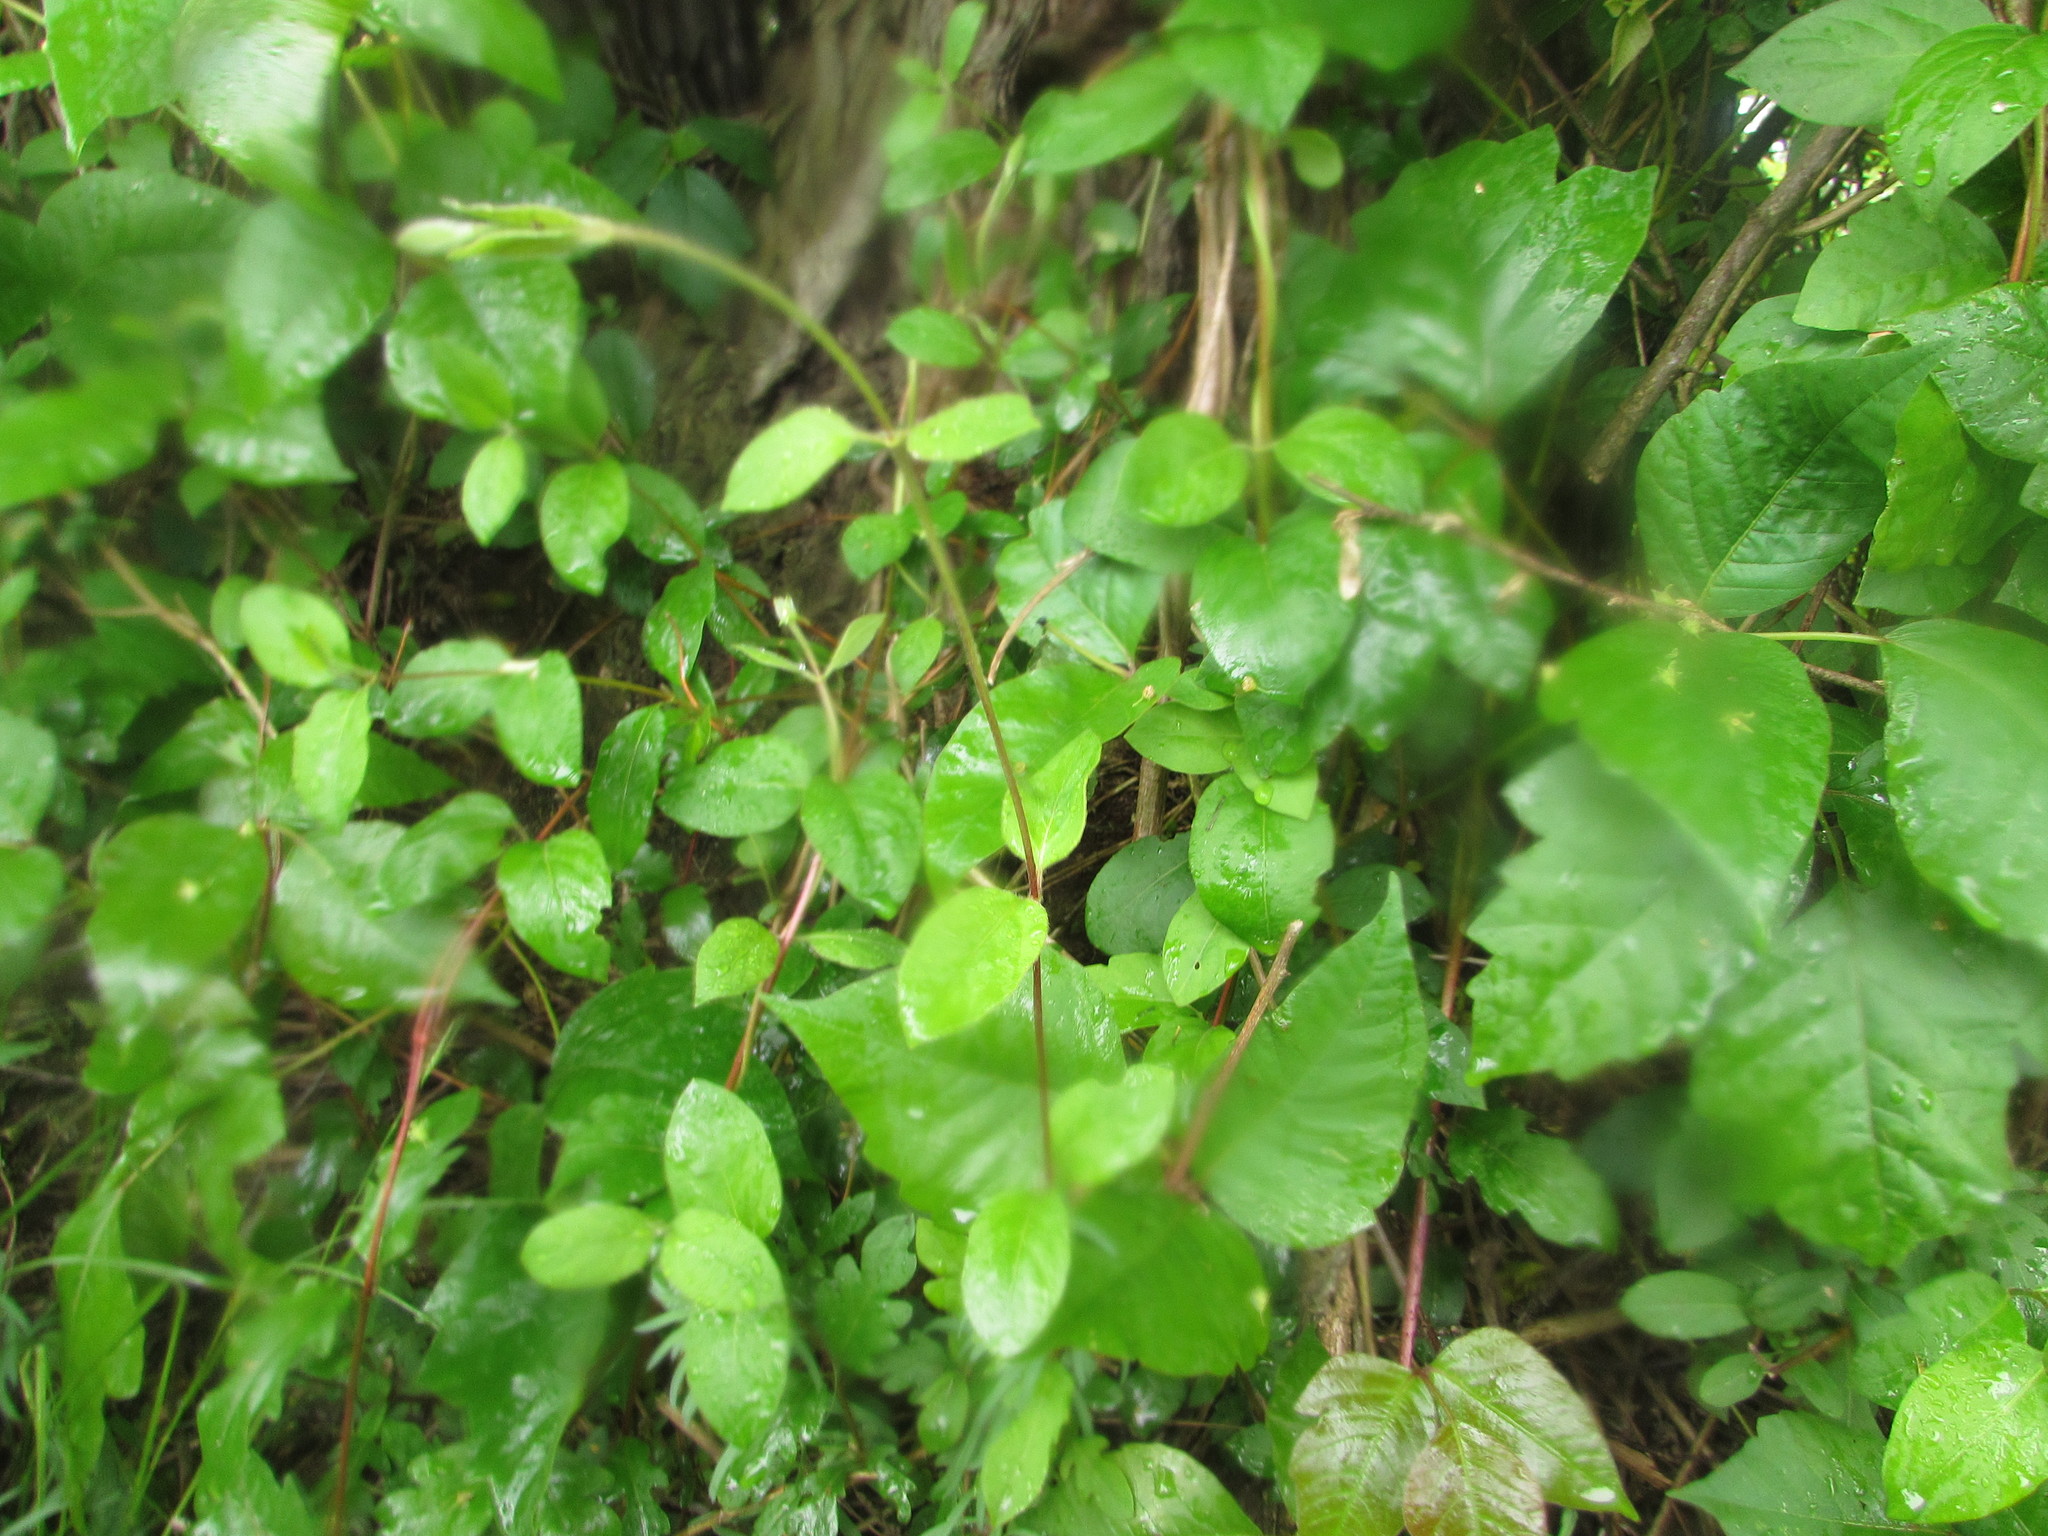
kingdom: Plantae
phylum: Tracheophyta
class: Magnoliopsida
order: Dipsacales
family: Caprifoliaceae
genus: Lonicera
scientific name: Lonicera japonica
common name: Japanese honeysuckle
